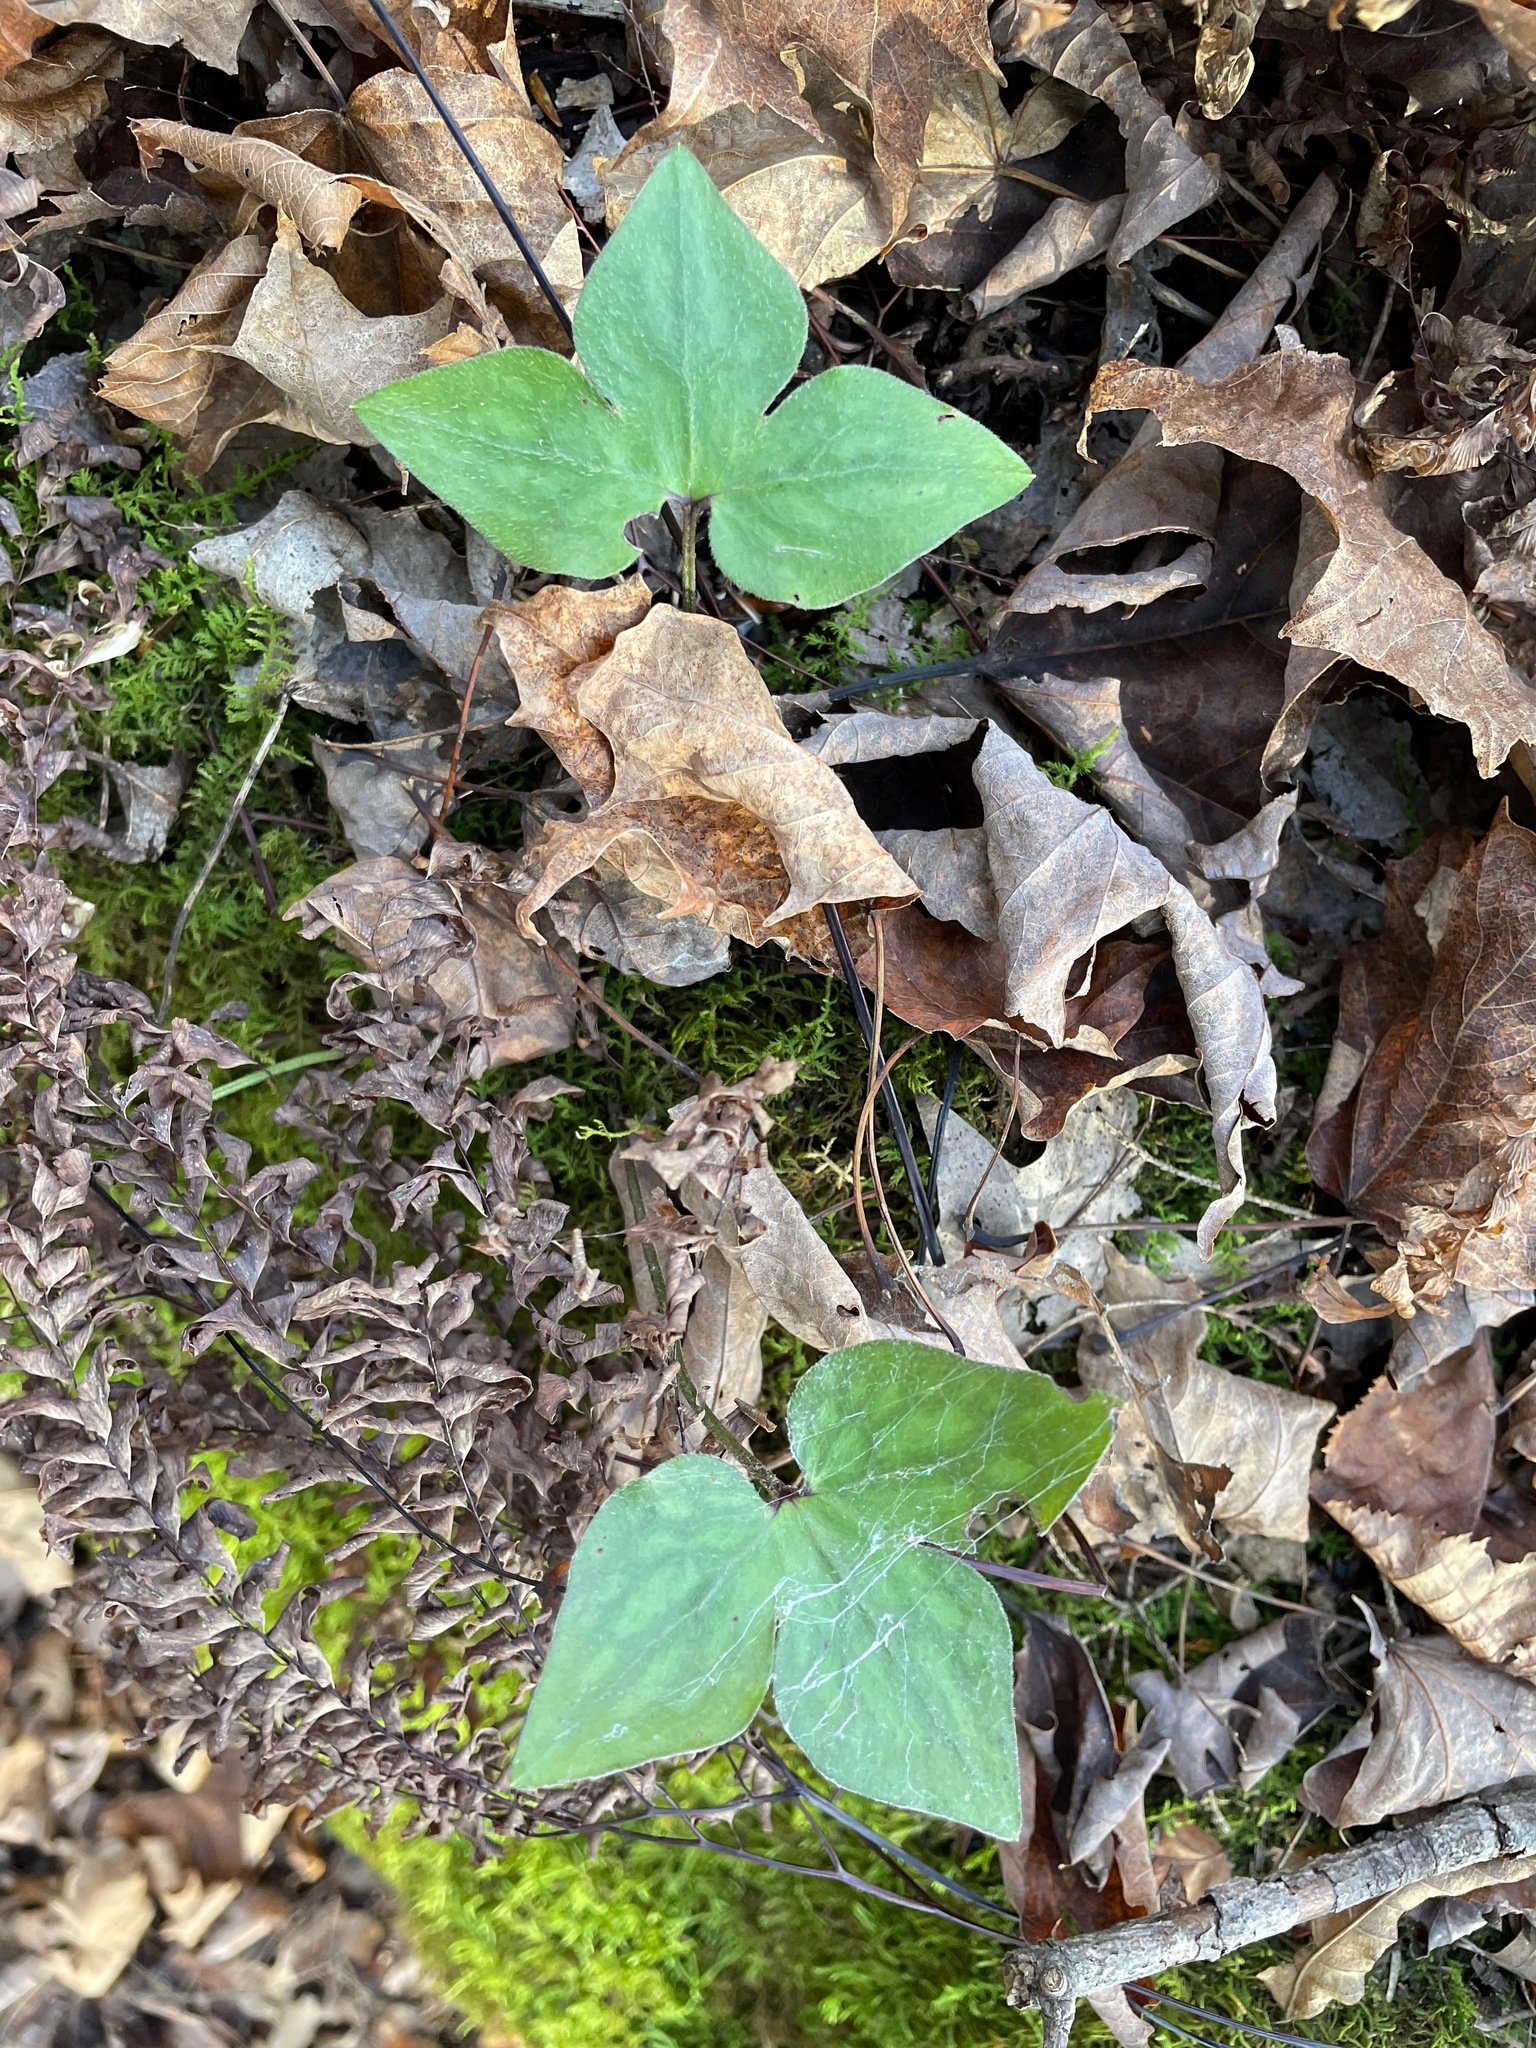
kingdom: Plantae
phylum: Tracheophyta
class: Magnoliopsida
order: Ranunculales
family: Ranunculaceae
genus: Hepatica
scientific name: Hepatica acutiloba
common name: Sharp-lobed hepatica
